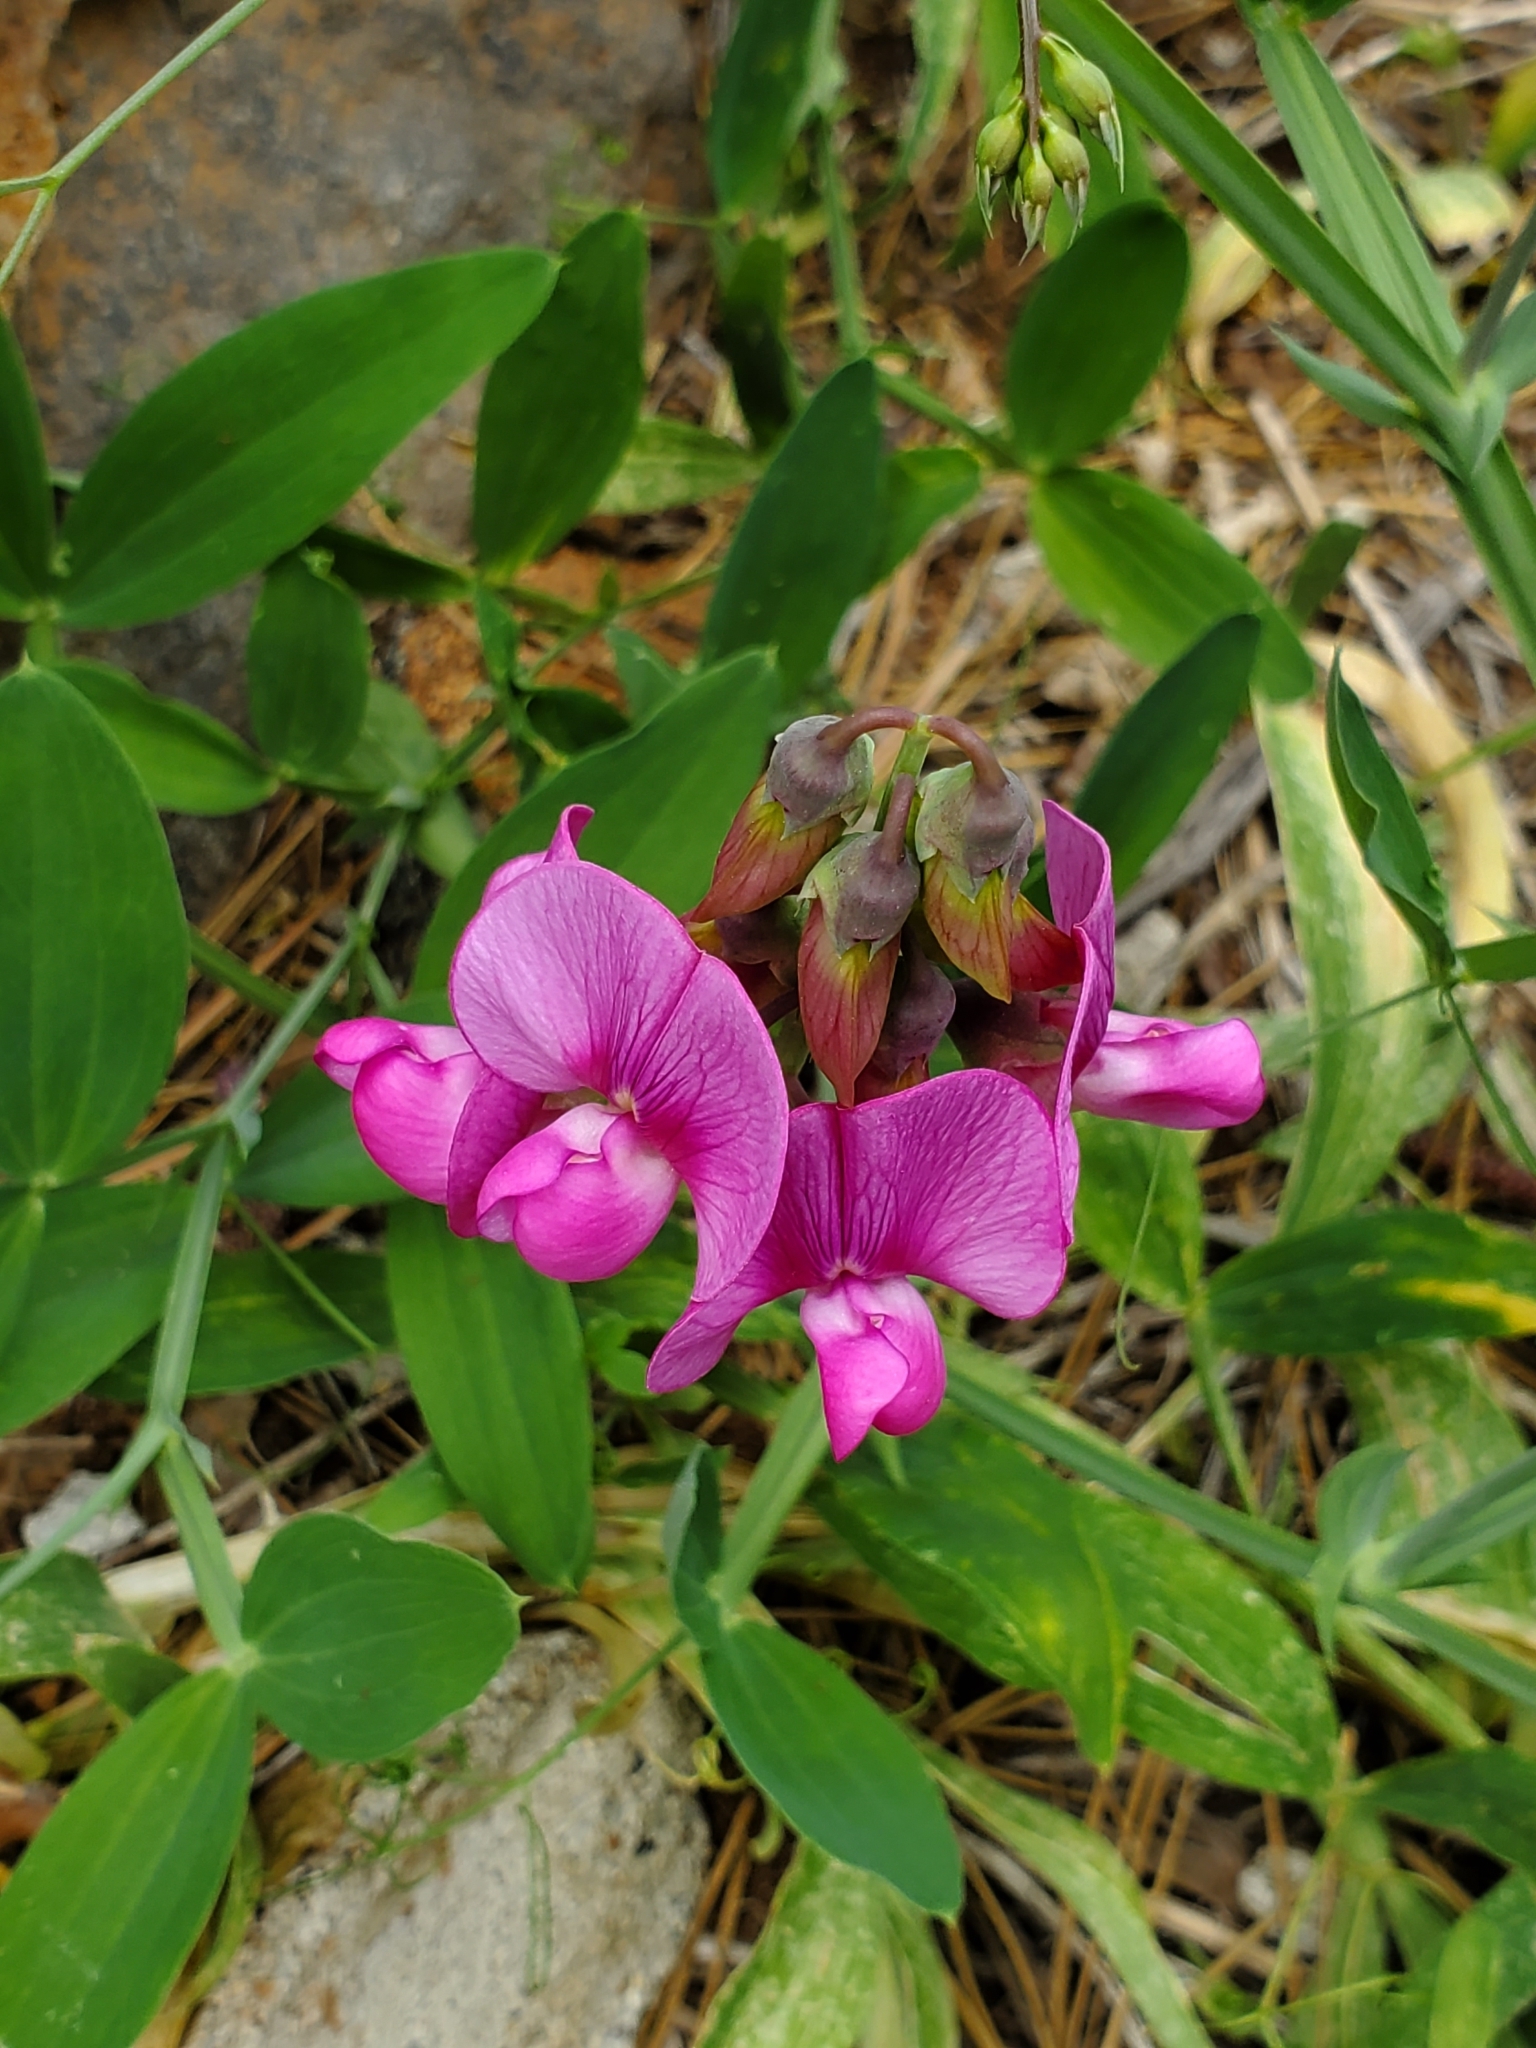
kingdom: Plantae
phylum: Tracheophyta
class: Magnoliopsida
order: Fabales
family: Fabaceae
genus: Lathyrus
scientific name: Lathyrus latifolius
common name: Perennial pea
